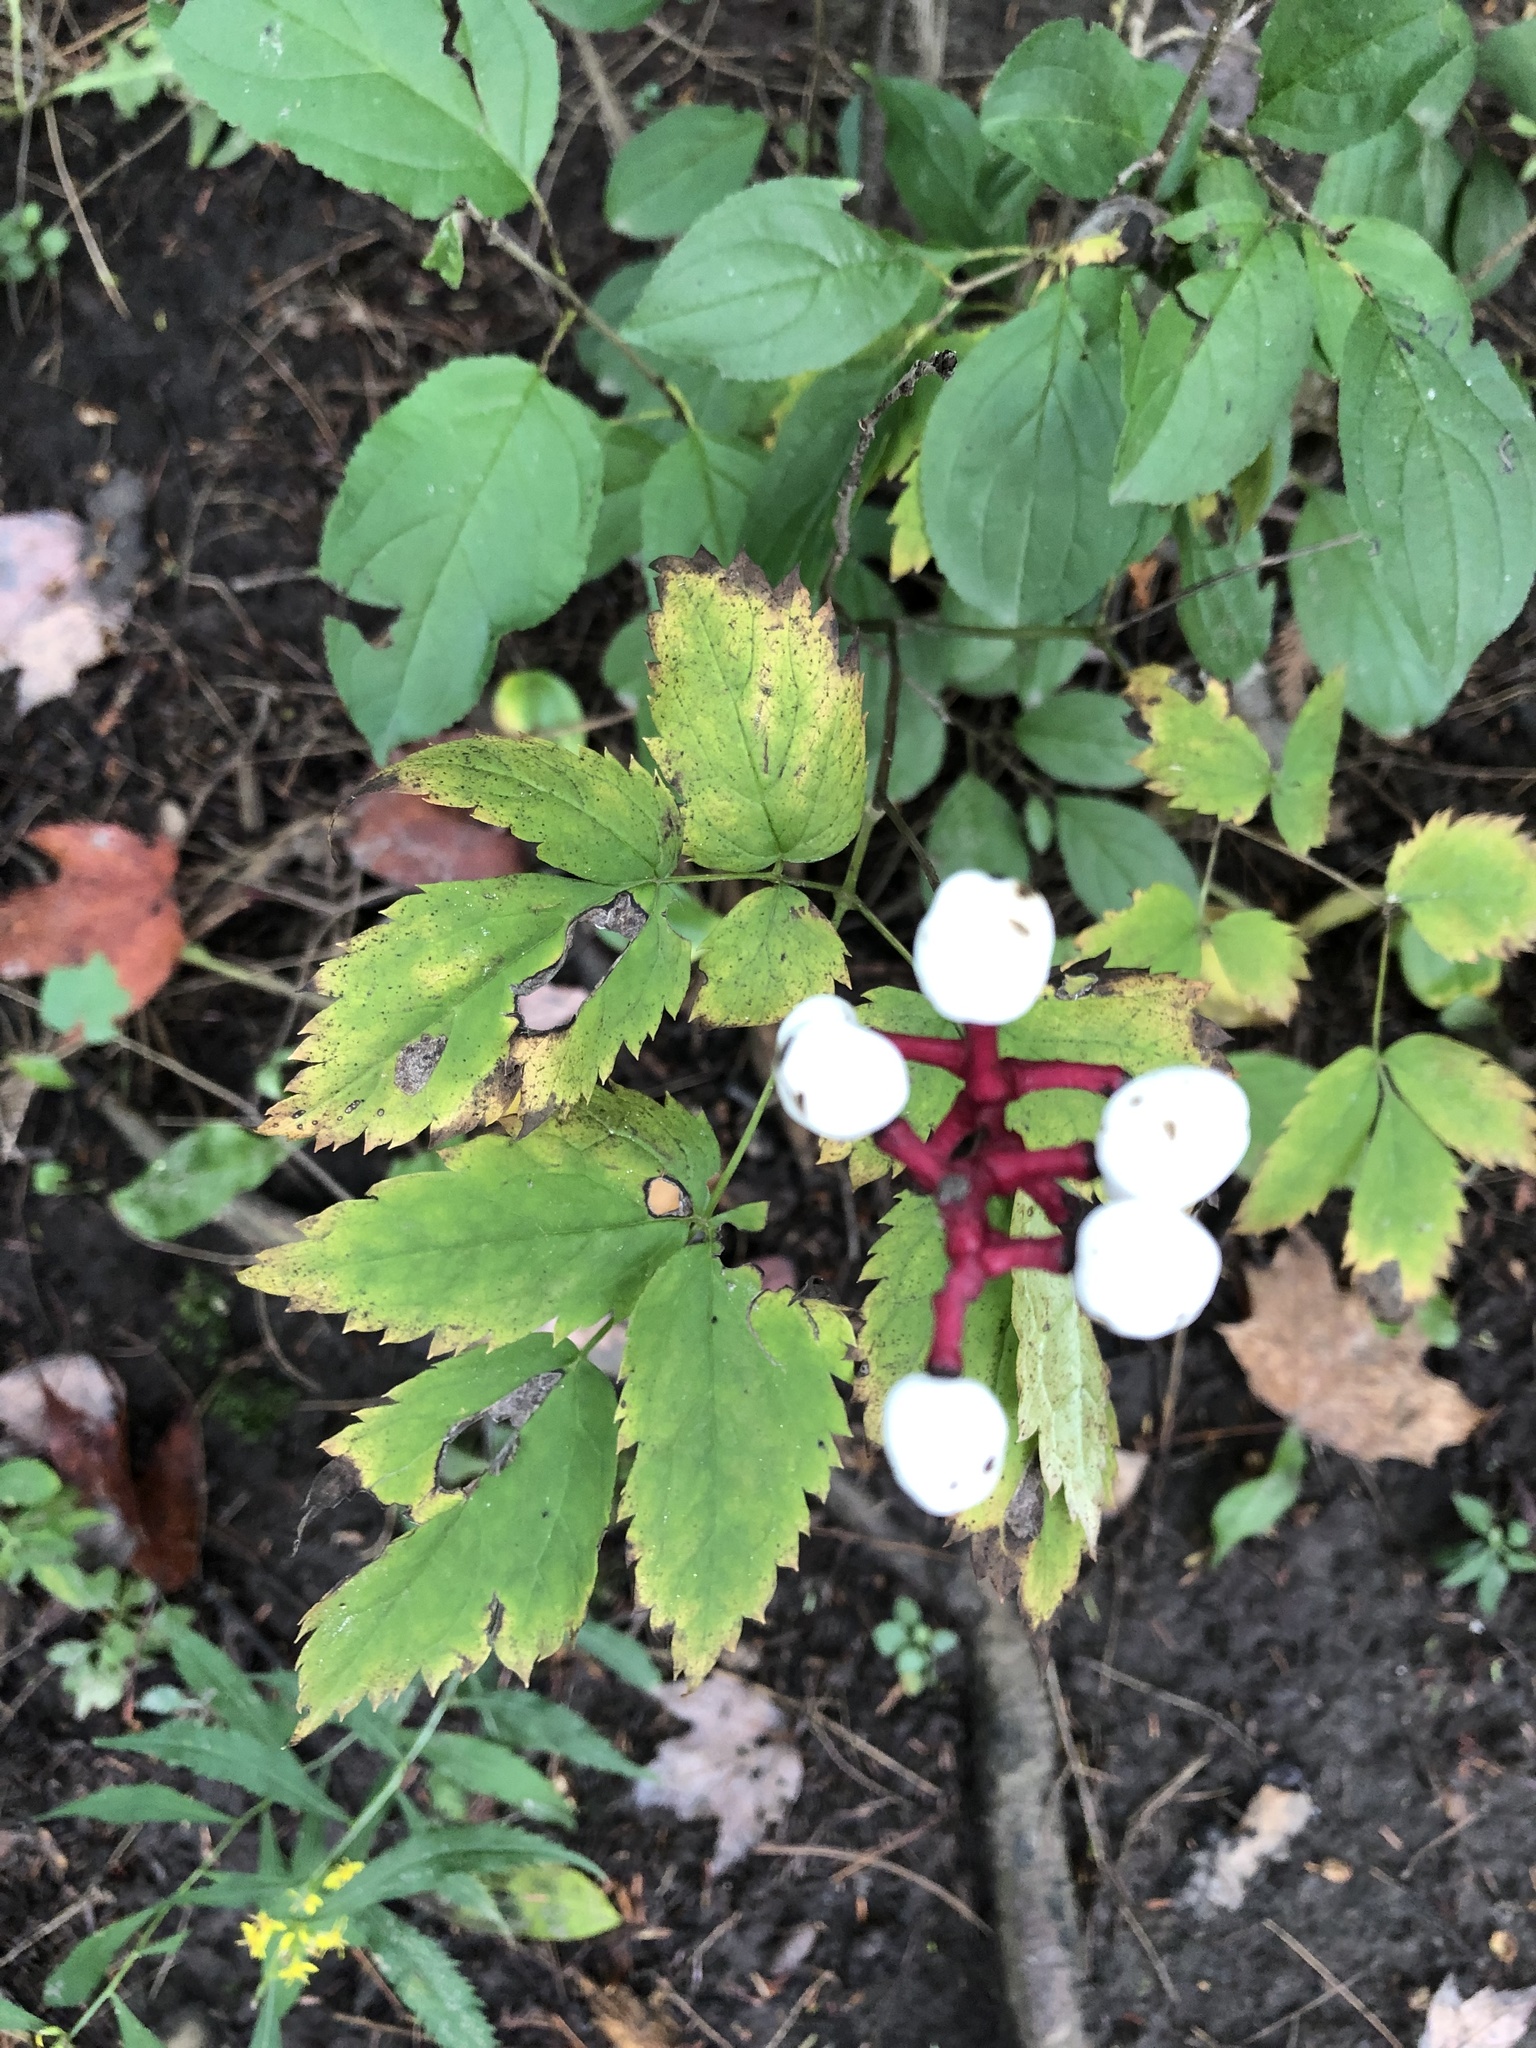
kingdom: Plantae
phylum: Tracheophyta
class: Magnoliopsida
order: Ranunculales
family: Ranunculaceae
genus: Actaea
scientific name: Actaea pachypoda
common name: Doll's-eyes
